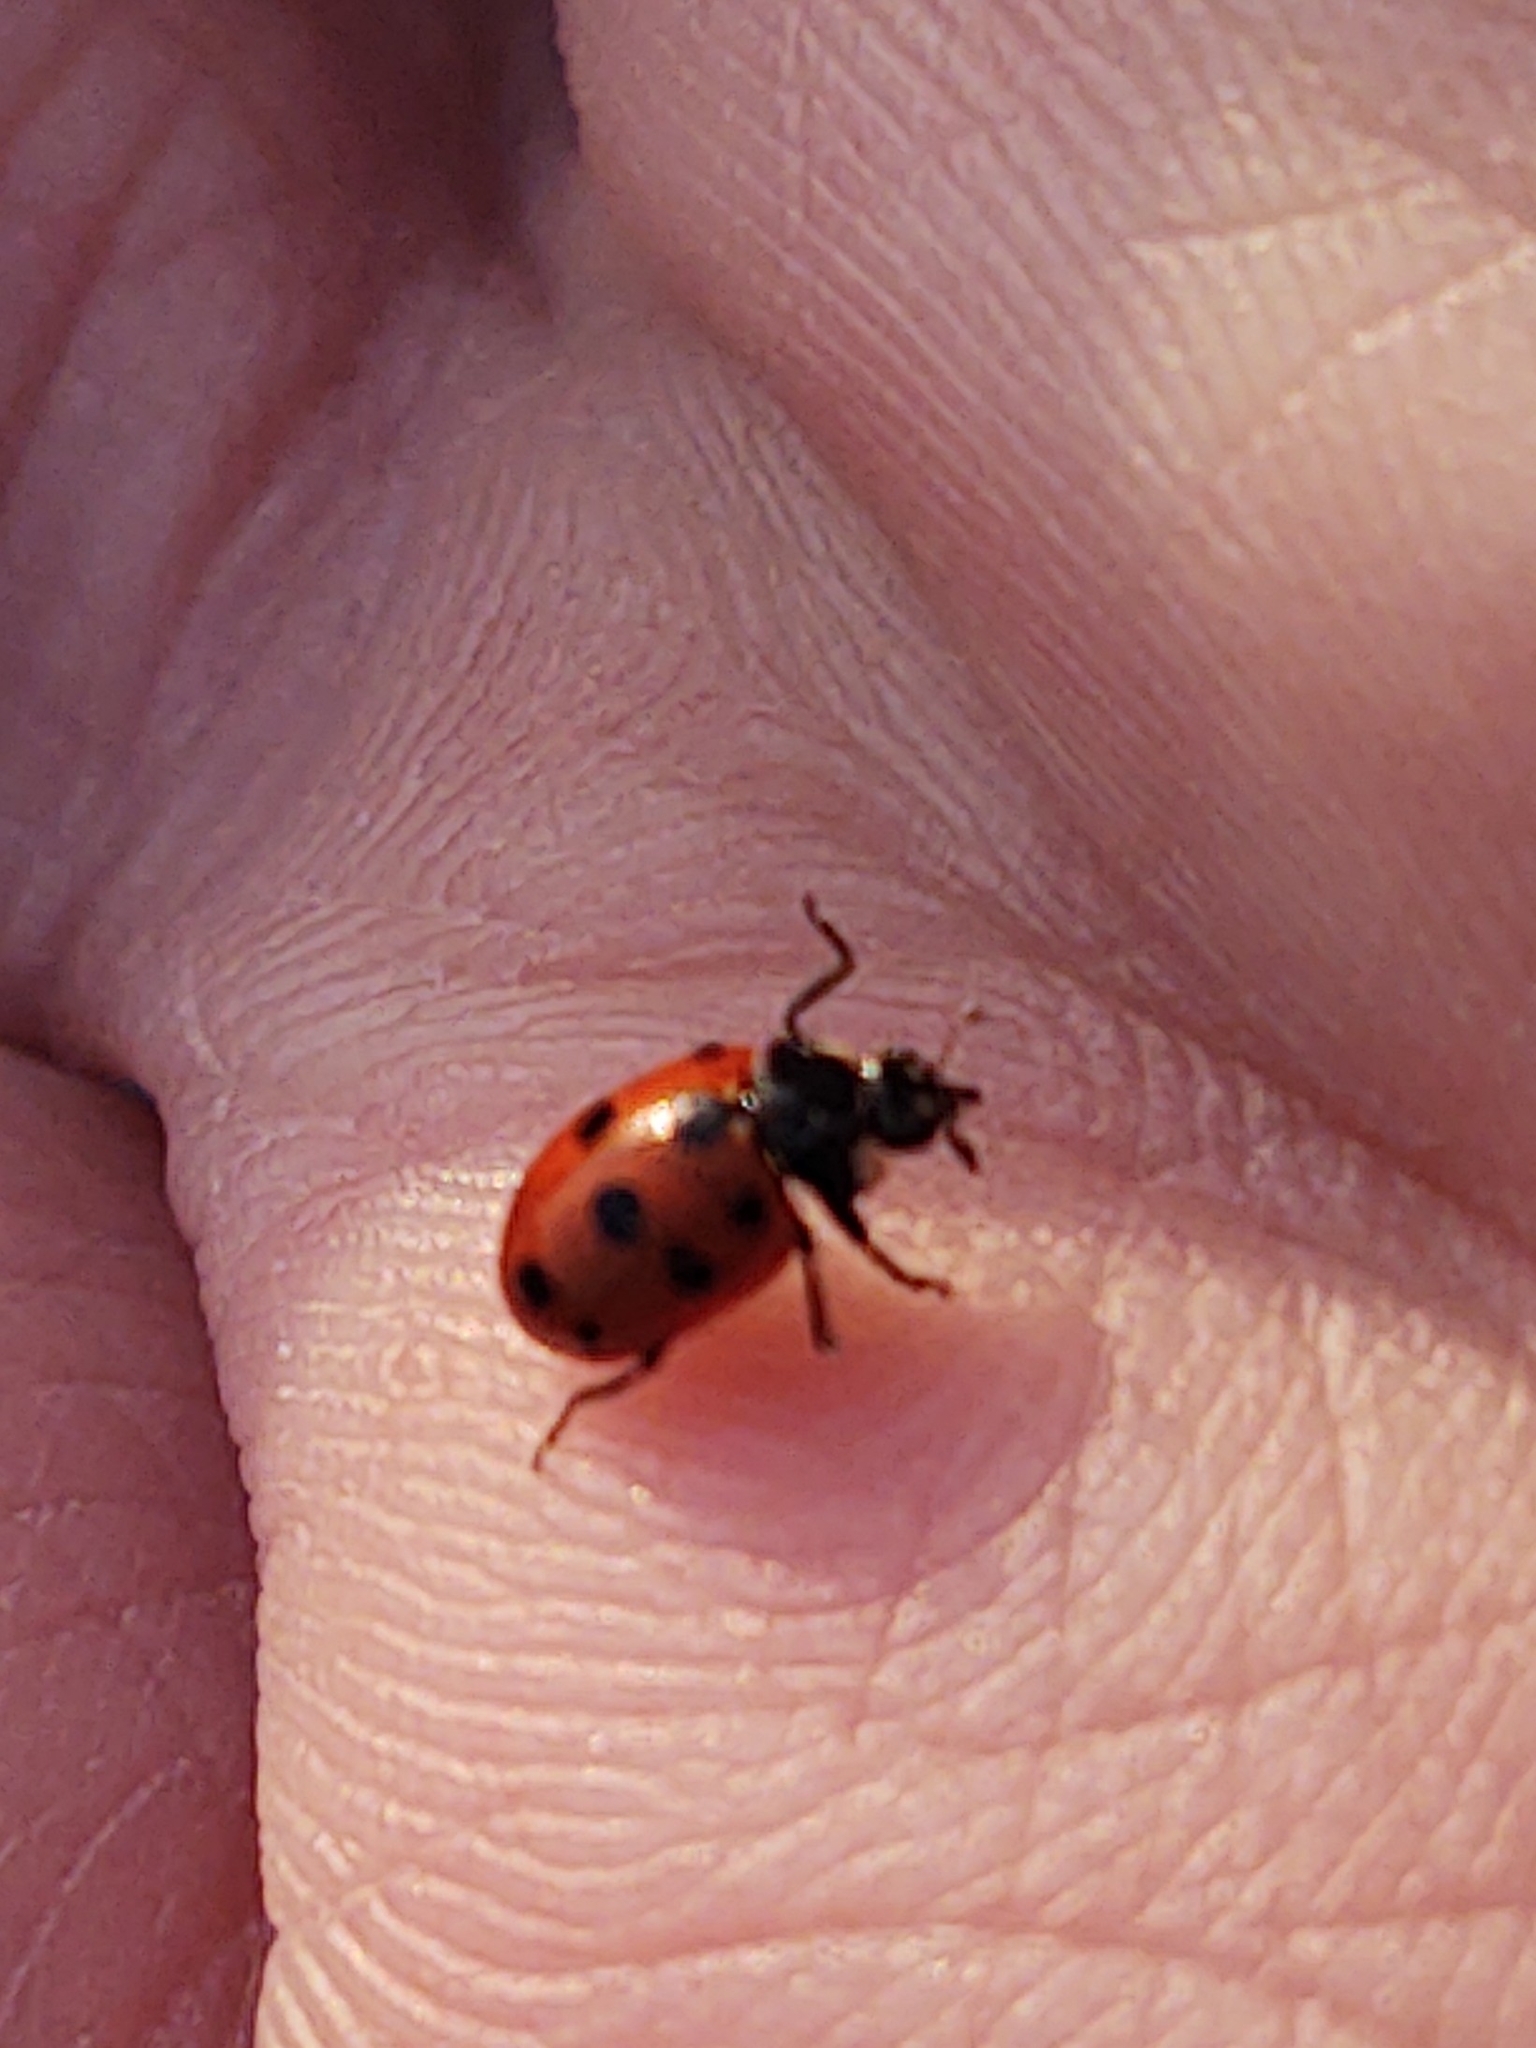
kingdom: Animalia
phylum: Arthropoda
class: Insecta
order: Coleoptera
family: Coccinellidae
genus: Coccinella
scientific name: Coccinella undecimpunctata
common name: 11-spot ladybird
